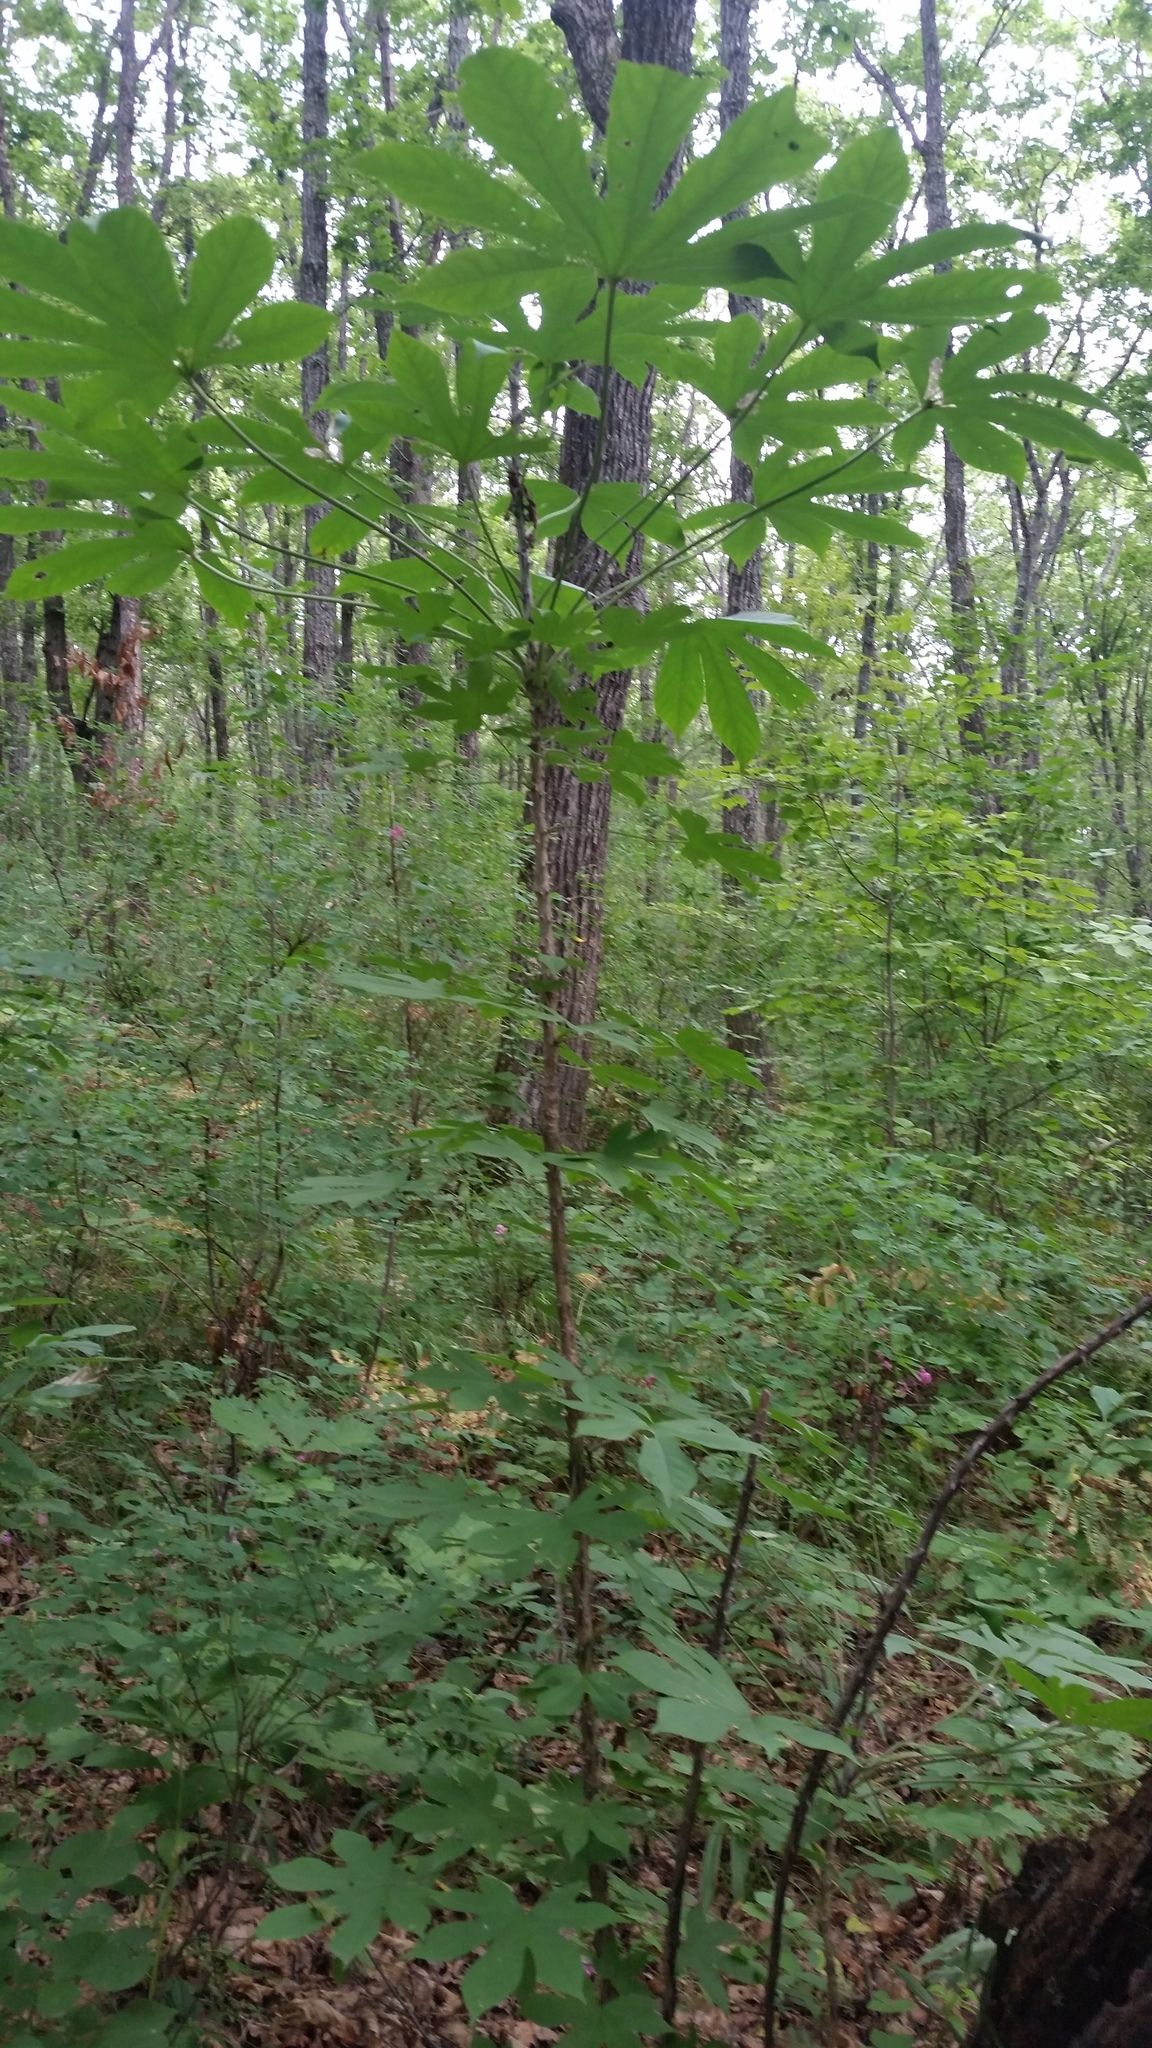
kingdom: Plantae
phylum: Tracheophyta
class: Magnoliopsida
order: Apiales
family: Araliaceae
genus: Kalopanax
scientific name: Kalopanax septemlobus
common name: Castor aralia
